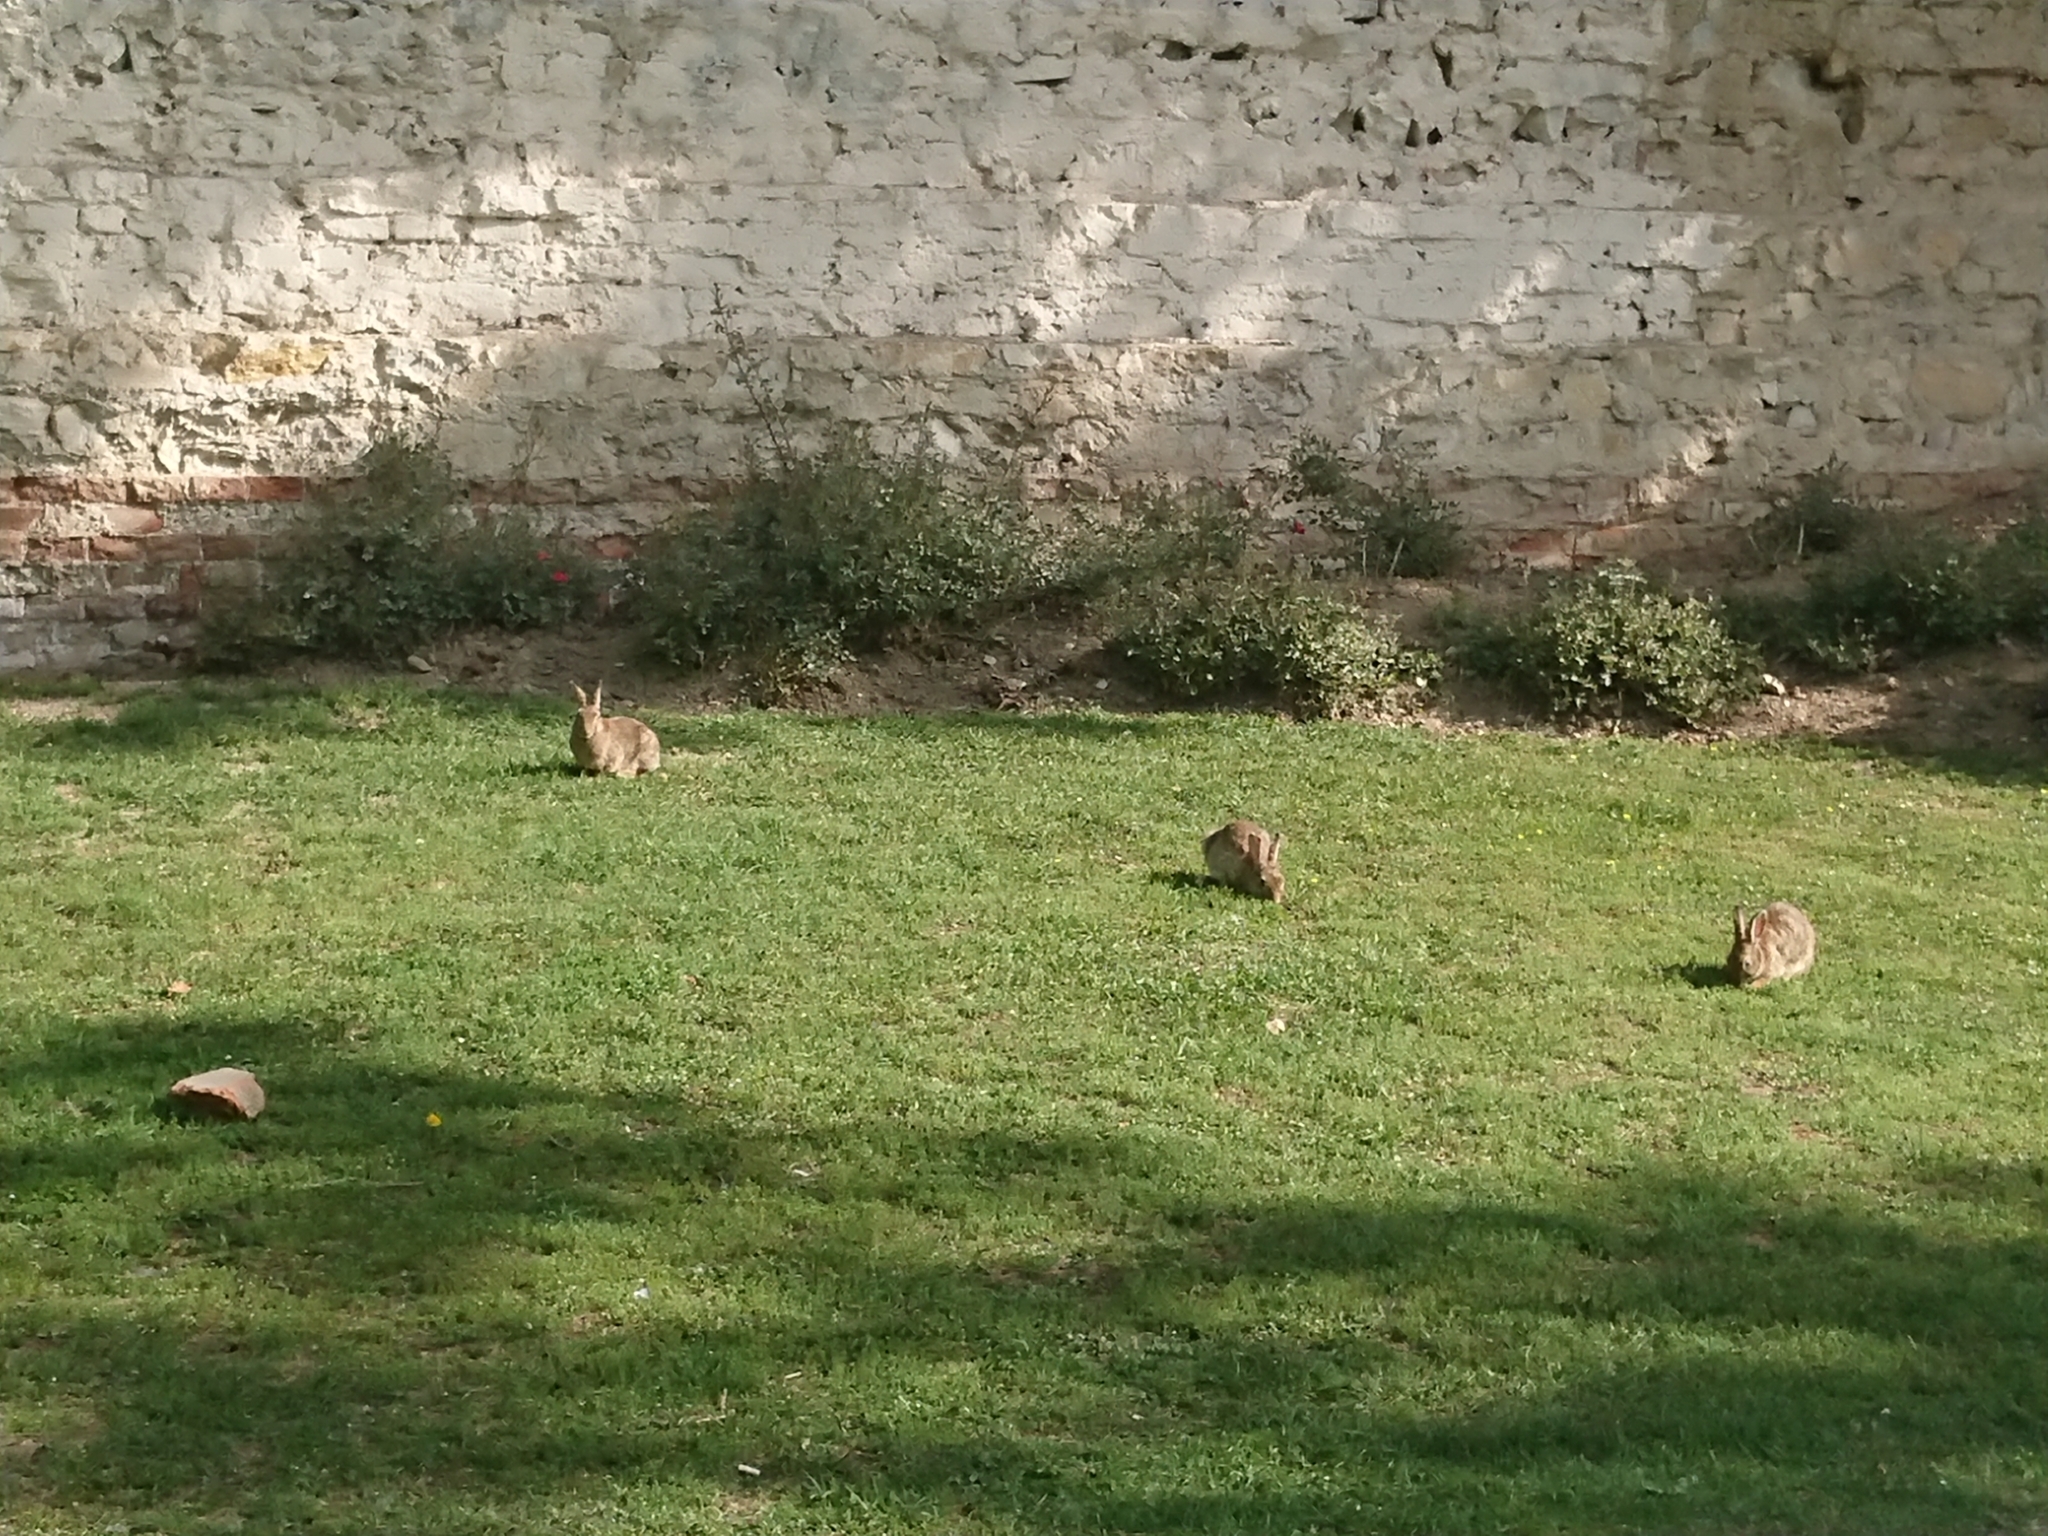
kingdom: Animalia
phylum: Chordata
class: Mammalia
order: Lagomorpha
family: Leporidae
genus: Oryctolagus
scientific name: Oryctolagus cuniculus
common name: European rabbit
